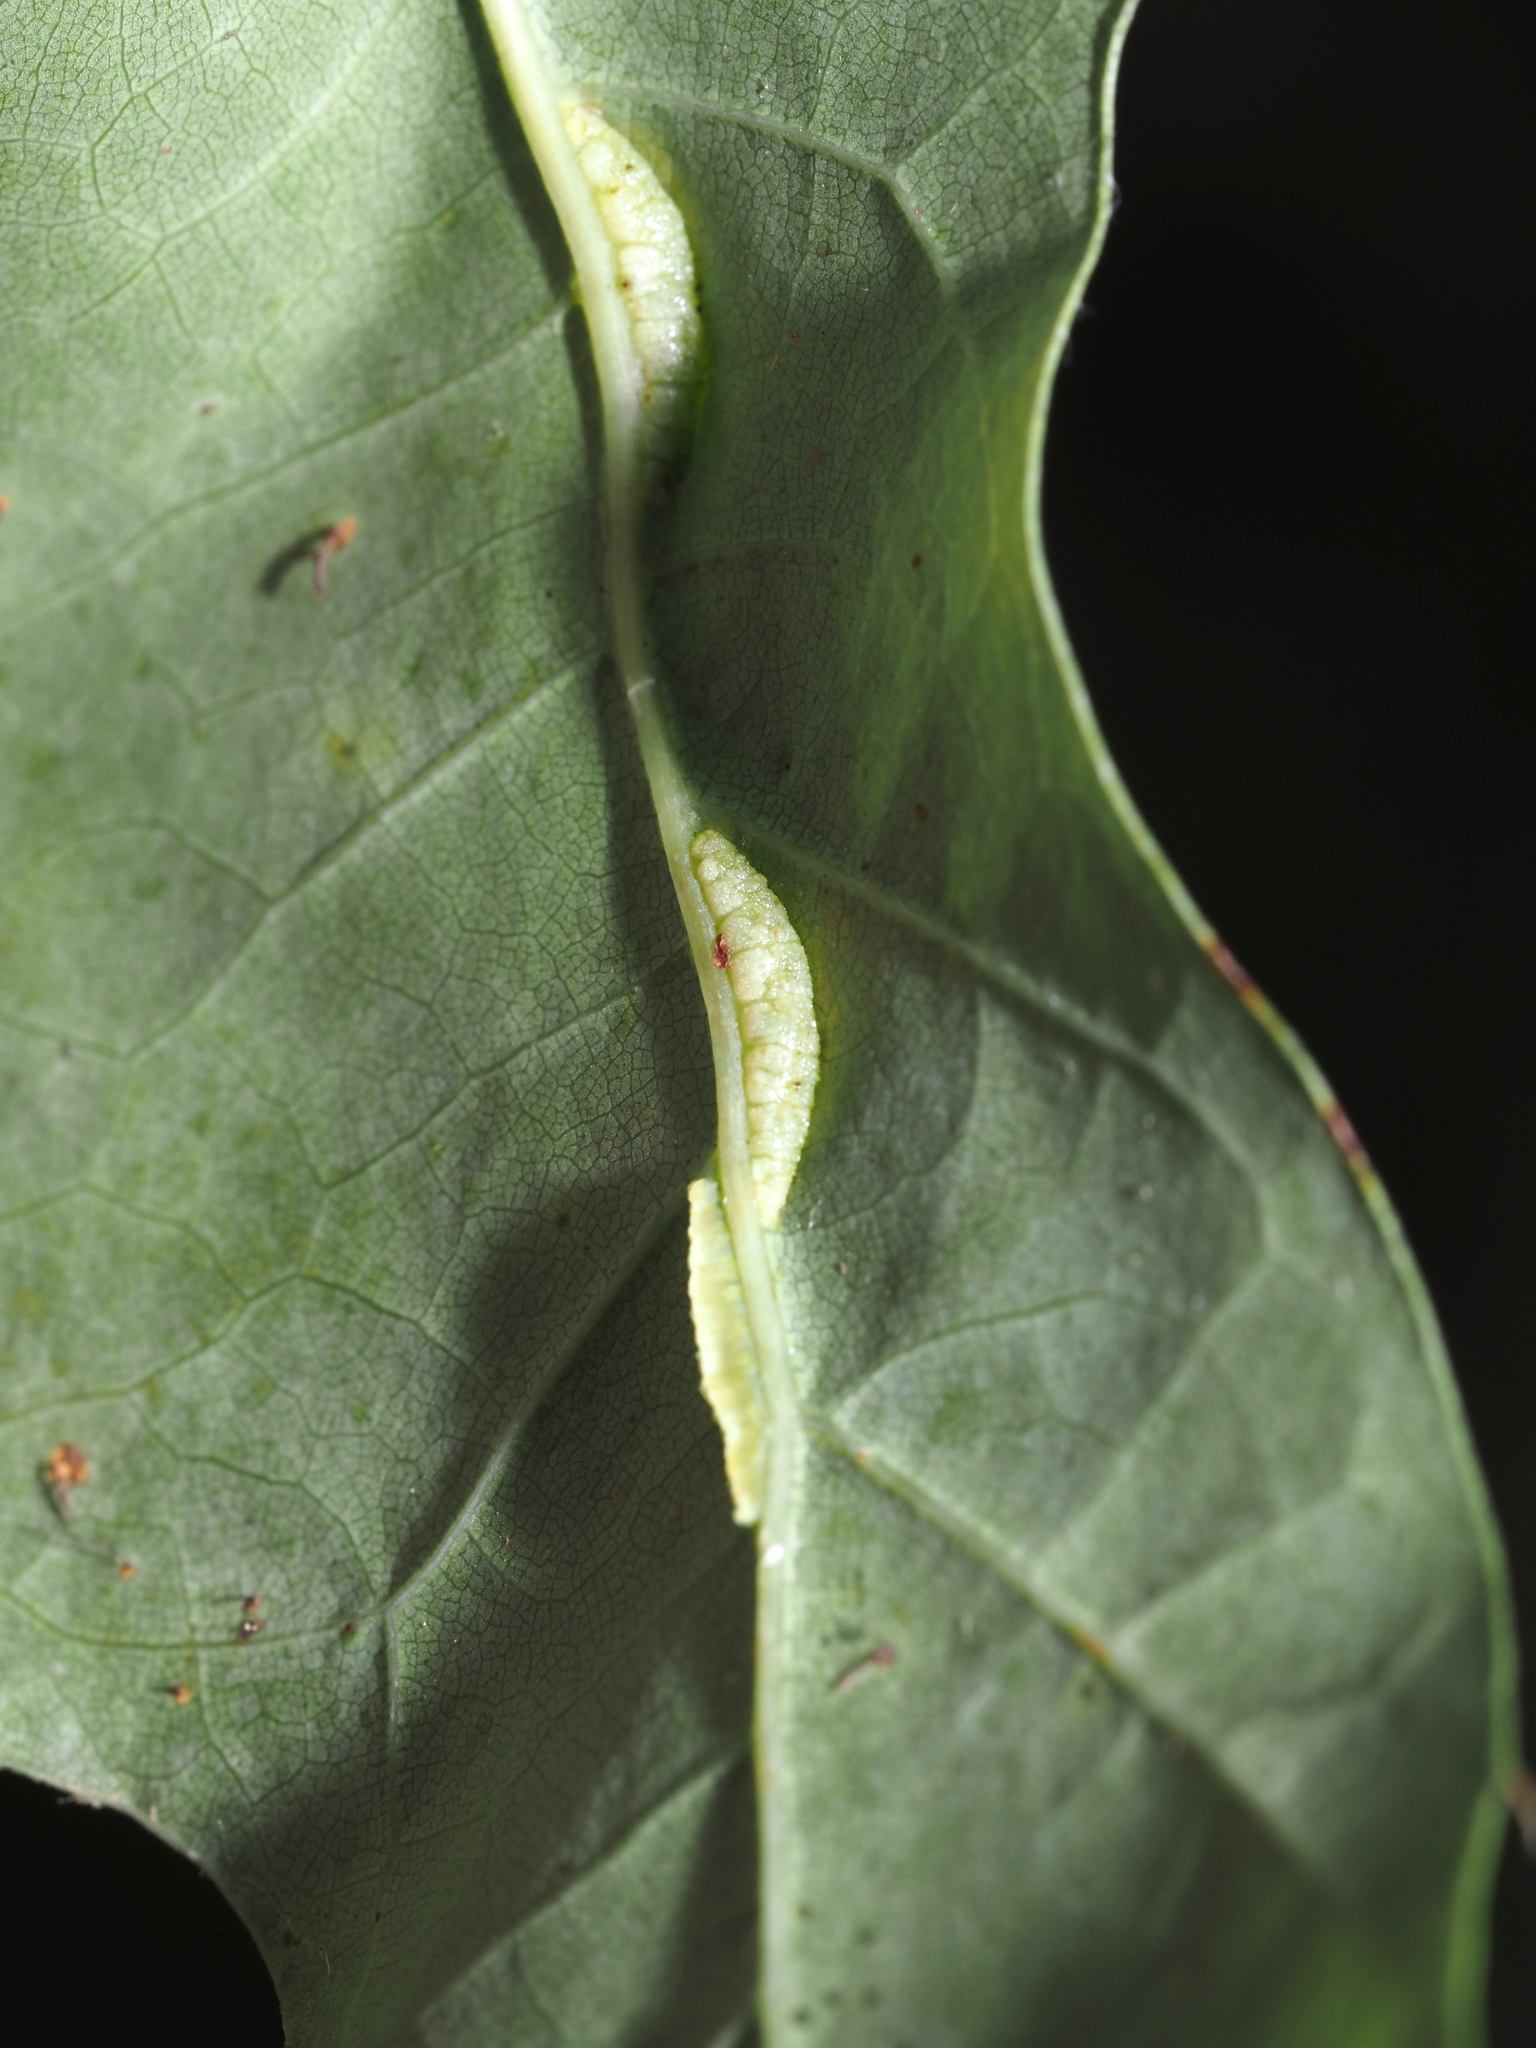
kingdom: Animalia
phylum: Arthropoda
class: Insecta
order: Diptera
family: Cecidomyiidae
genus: Macrodiplosis
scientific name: Macrodiplosis q-orucum
